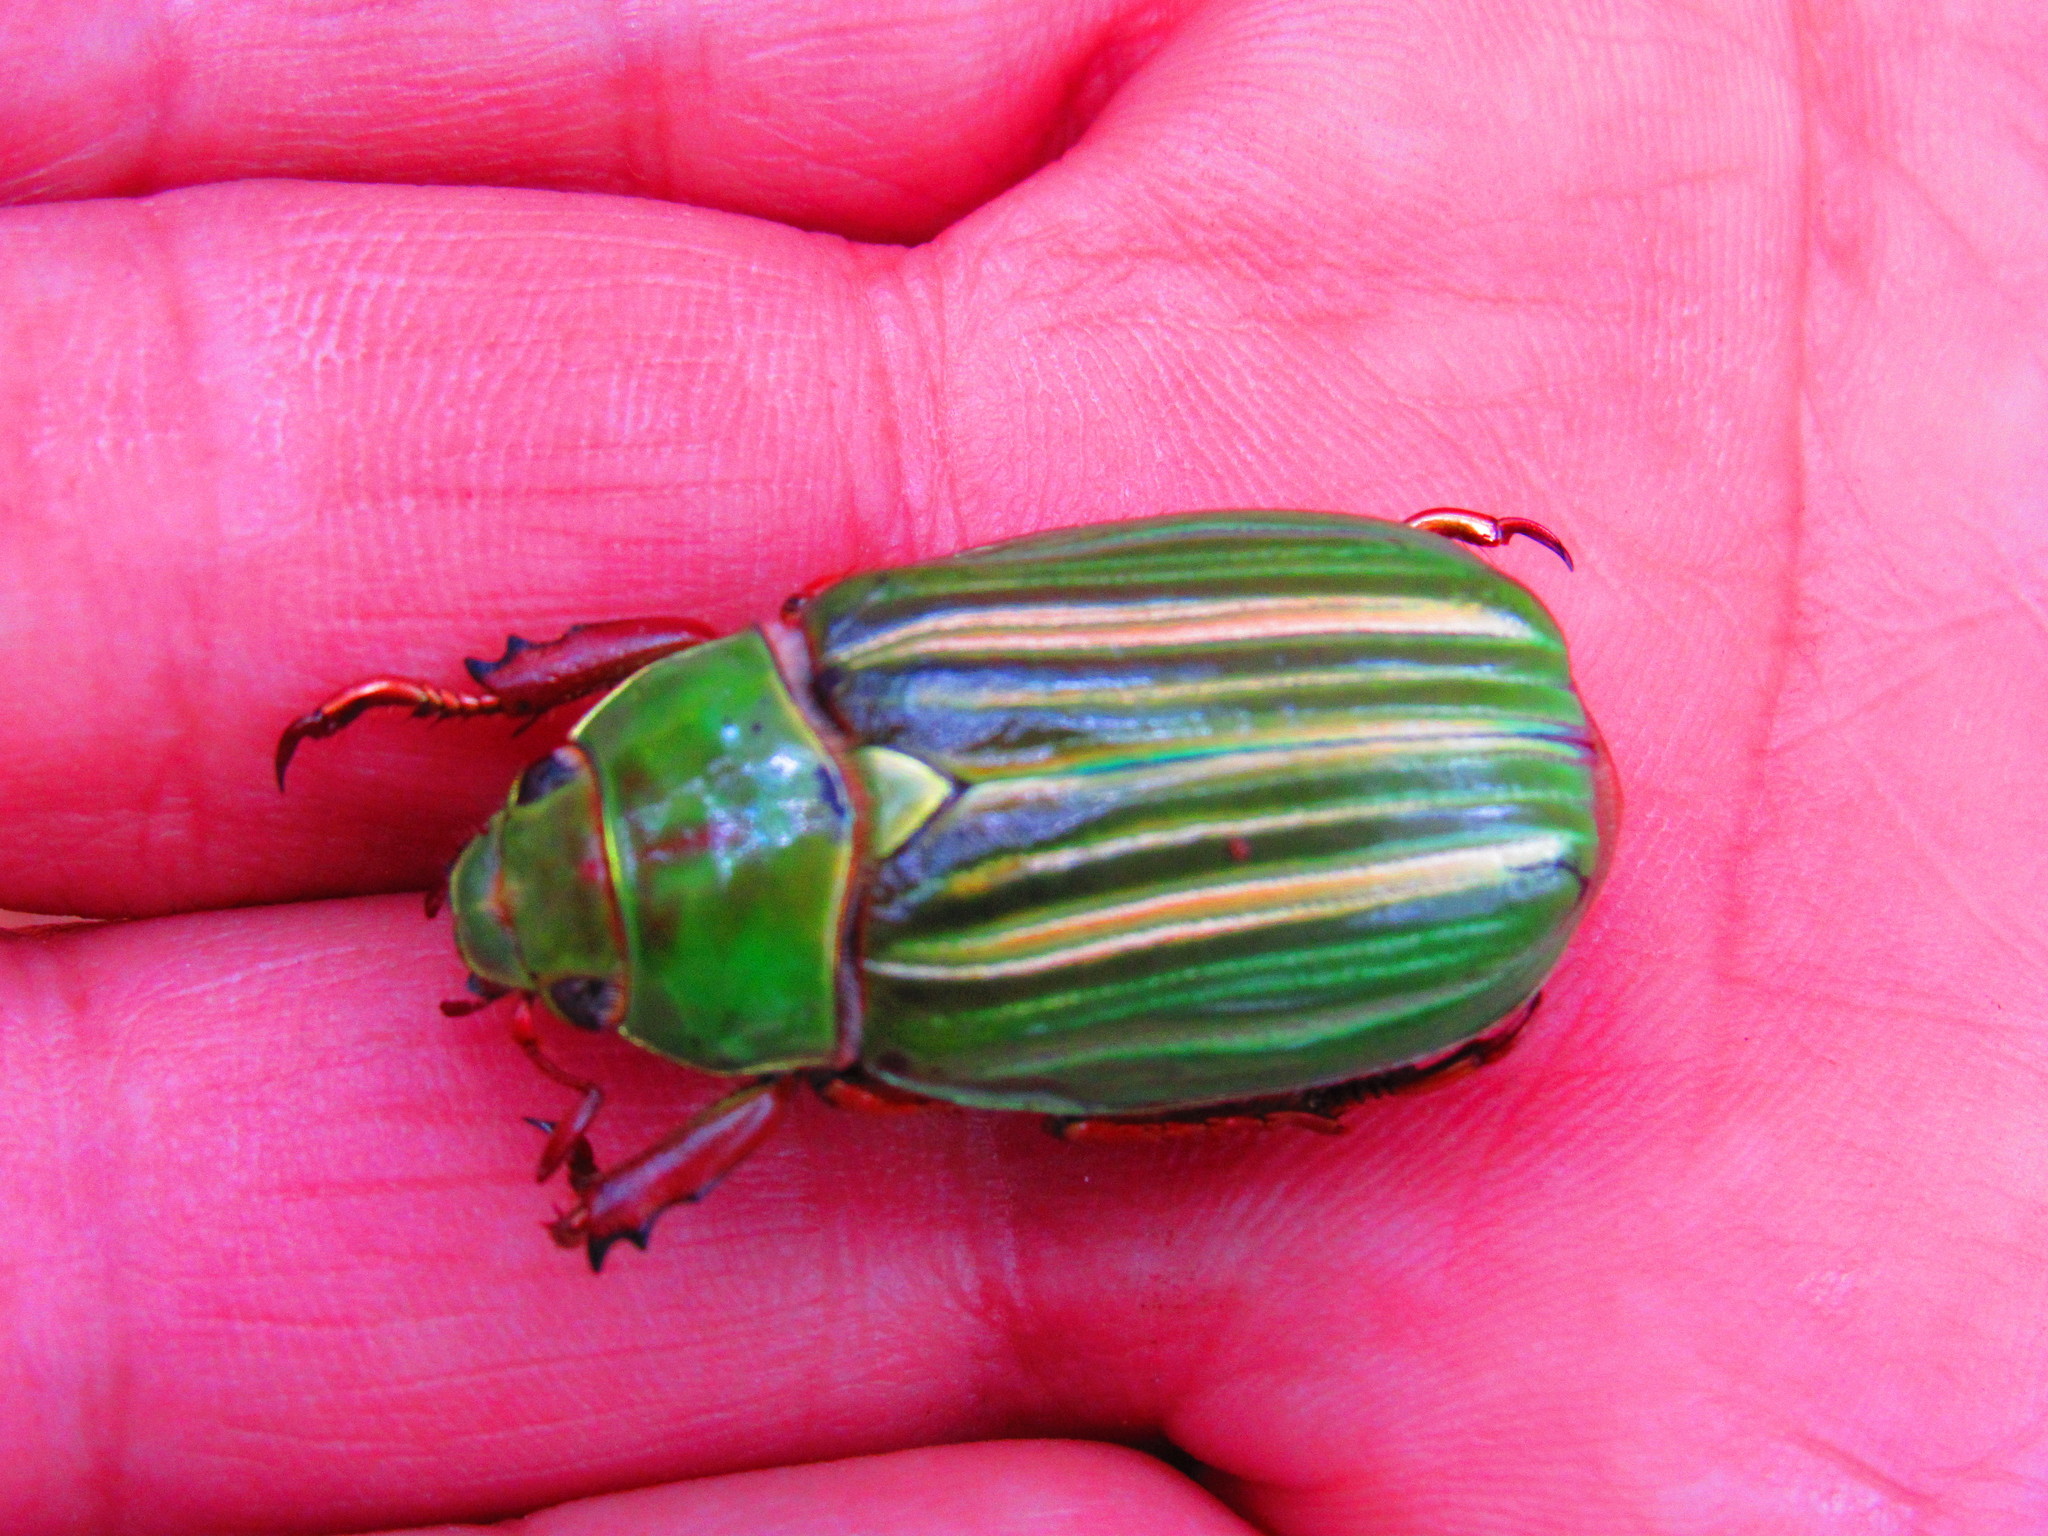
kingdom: Animalia
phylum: Arthropoda
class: Insecta
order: Coleoptera
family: Scarabaeidae
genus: Chrysina
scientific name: Chrysina adelaida
